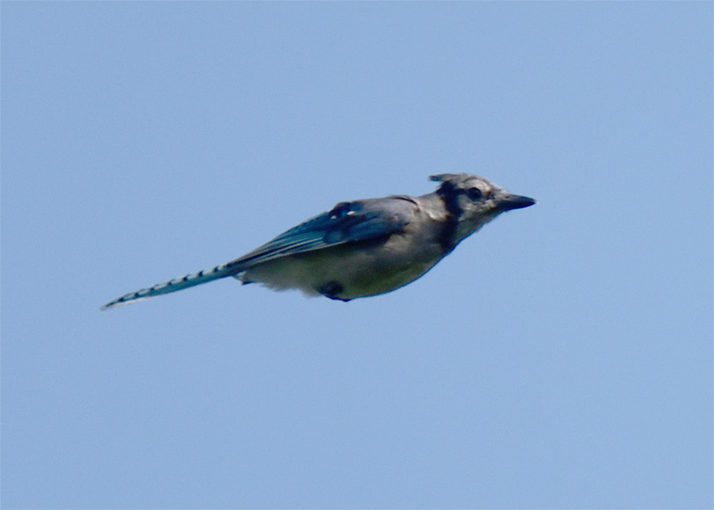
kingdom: Animalia
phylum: Chordata
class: Aves
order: Passeriformes
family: Corvidae
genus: Cyanocitta
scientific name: Cyanocitta cristata
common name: Blue jay
